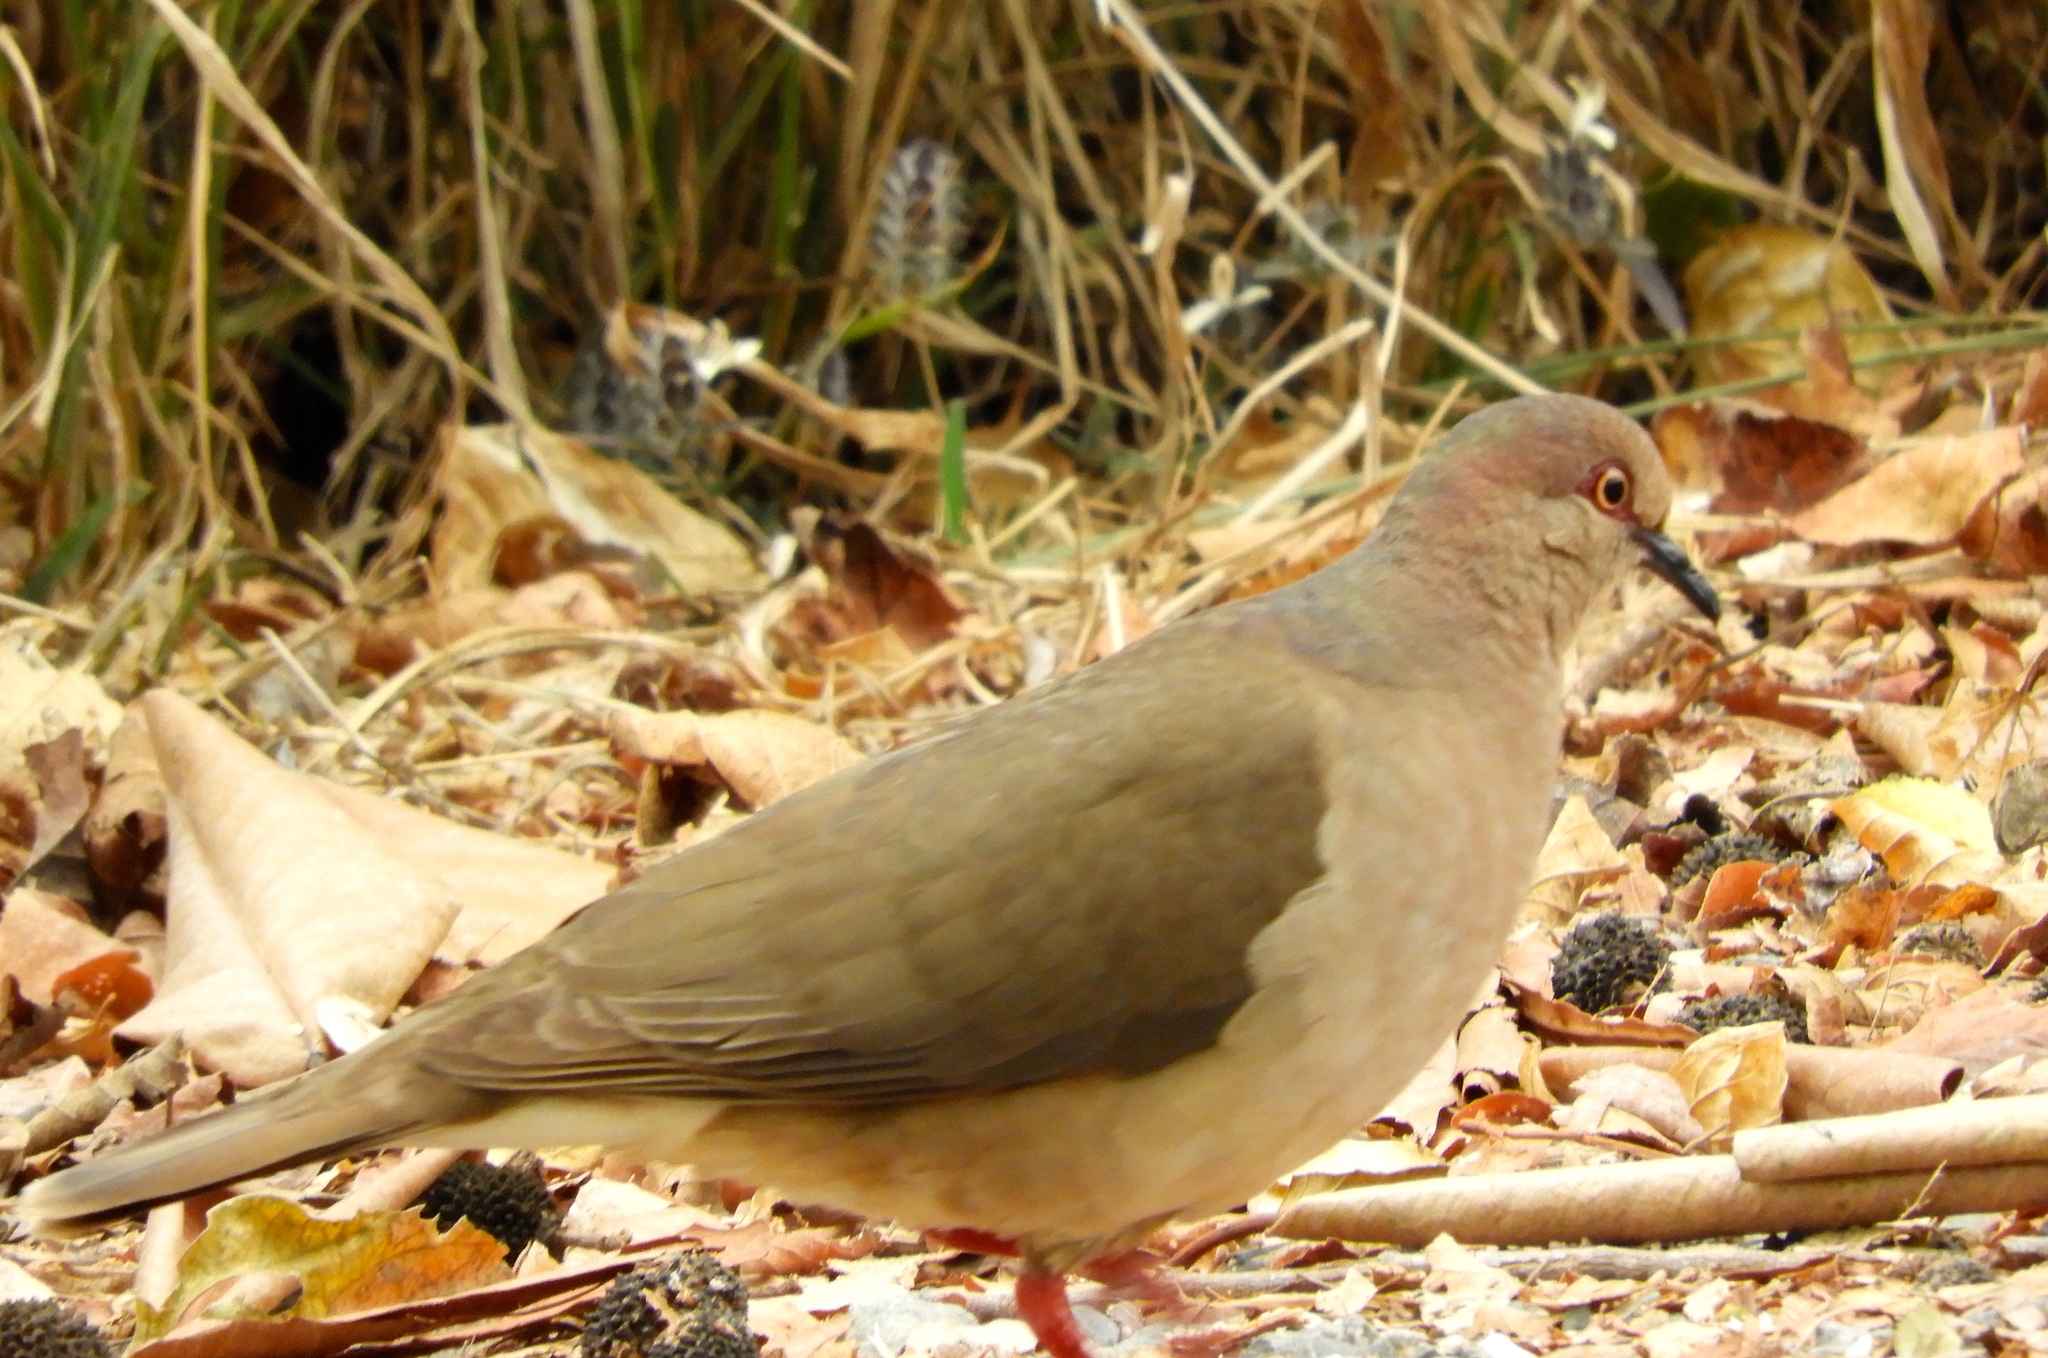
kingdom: Animalia
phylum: Chordata
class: Aves
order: Columbiformes
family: Columbidae
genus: Leptotila
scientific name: Leptotila verreauxi
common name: White-tipped dove
